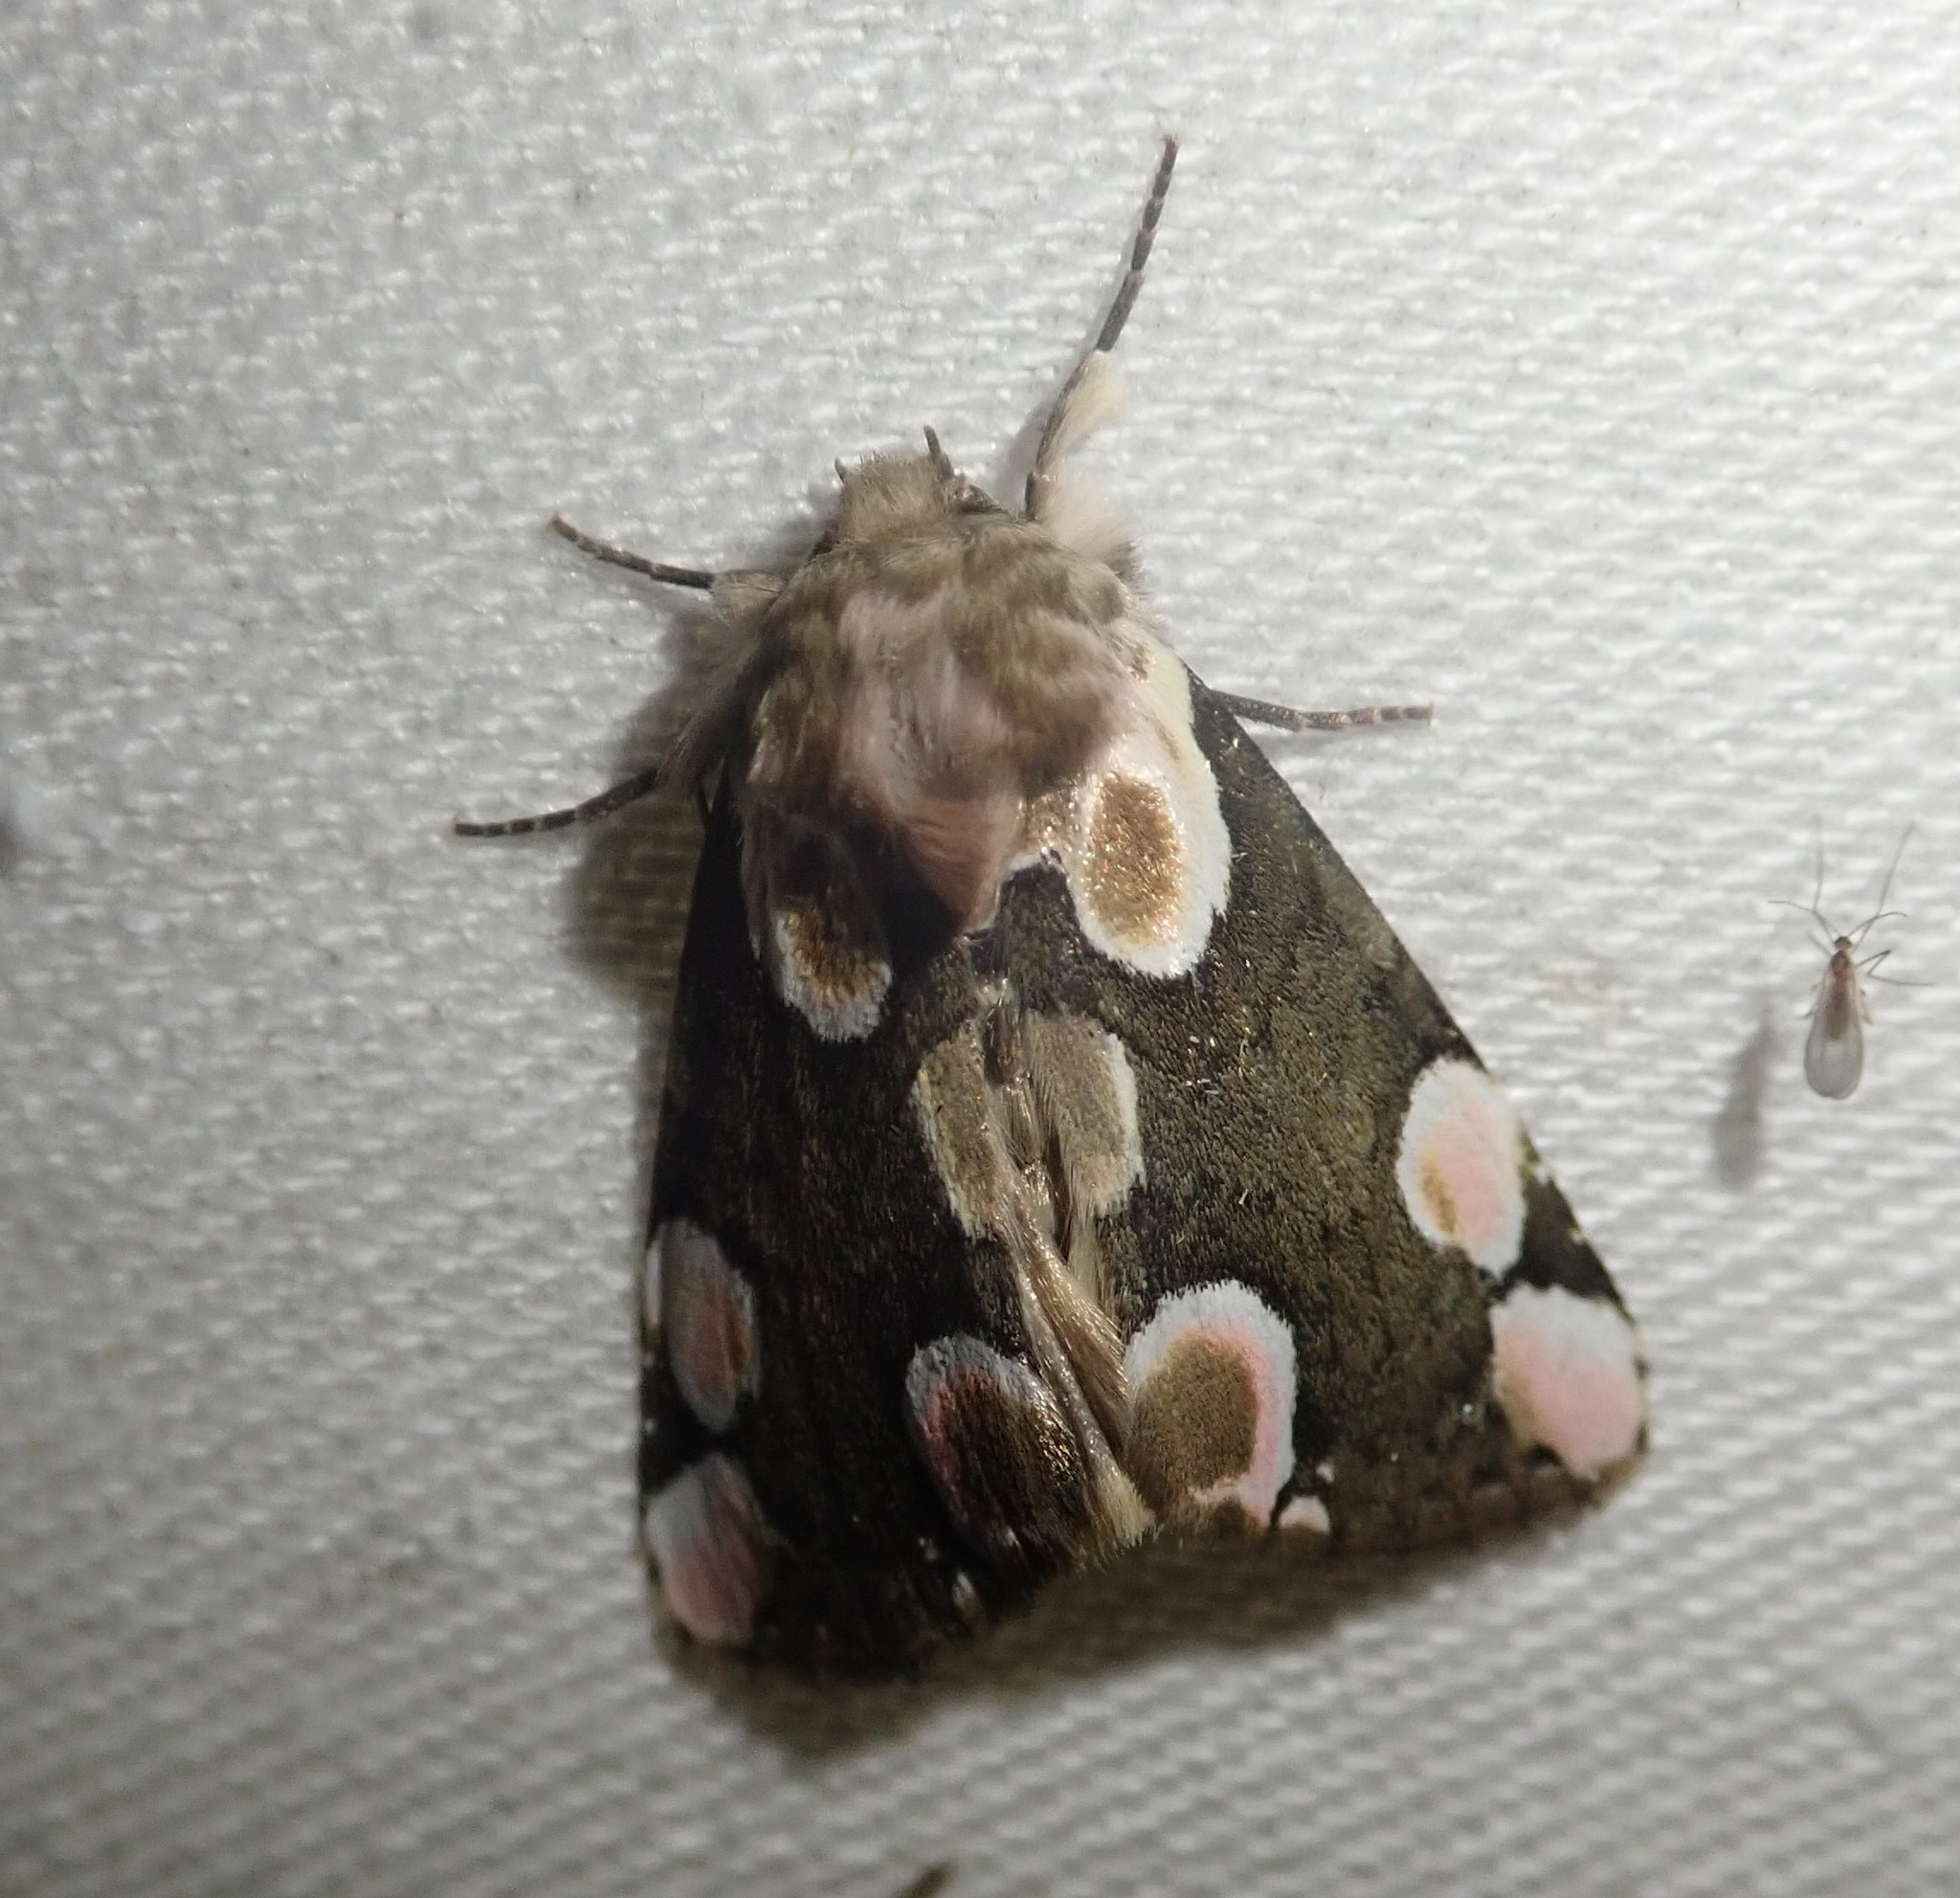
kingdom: Animalia
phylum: Arthropoda
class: Insecta
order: Lepidoptera
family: Drepanidae
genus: Thyatira
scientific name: Thyatira batis
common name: Peach blossom
